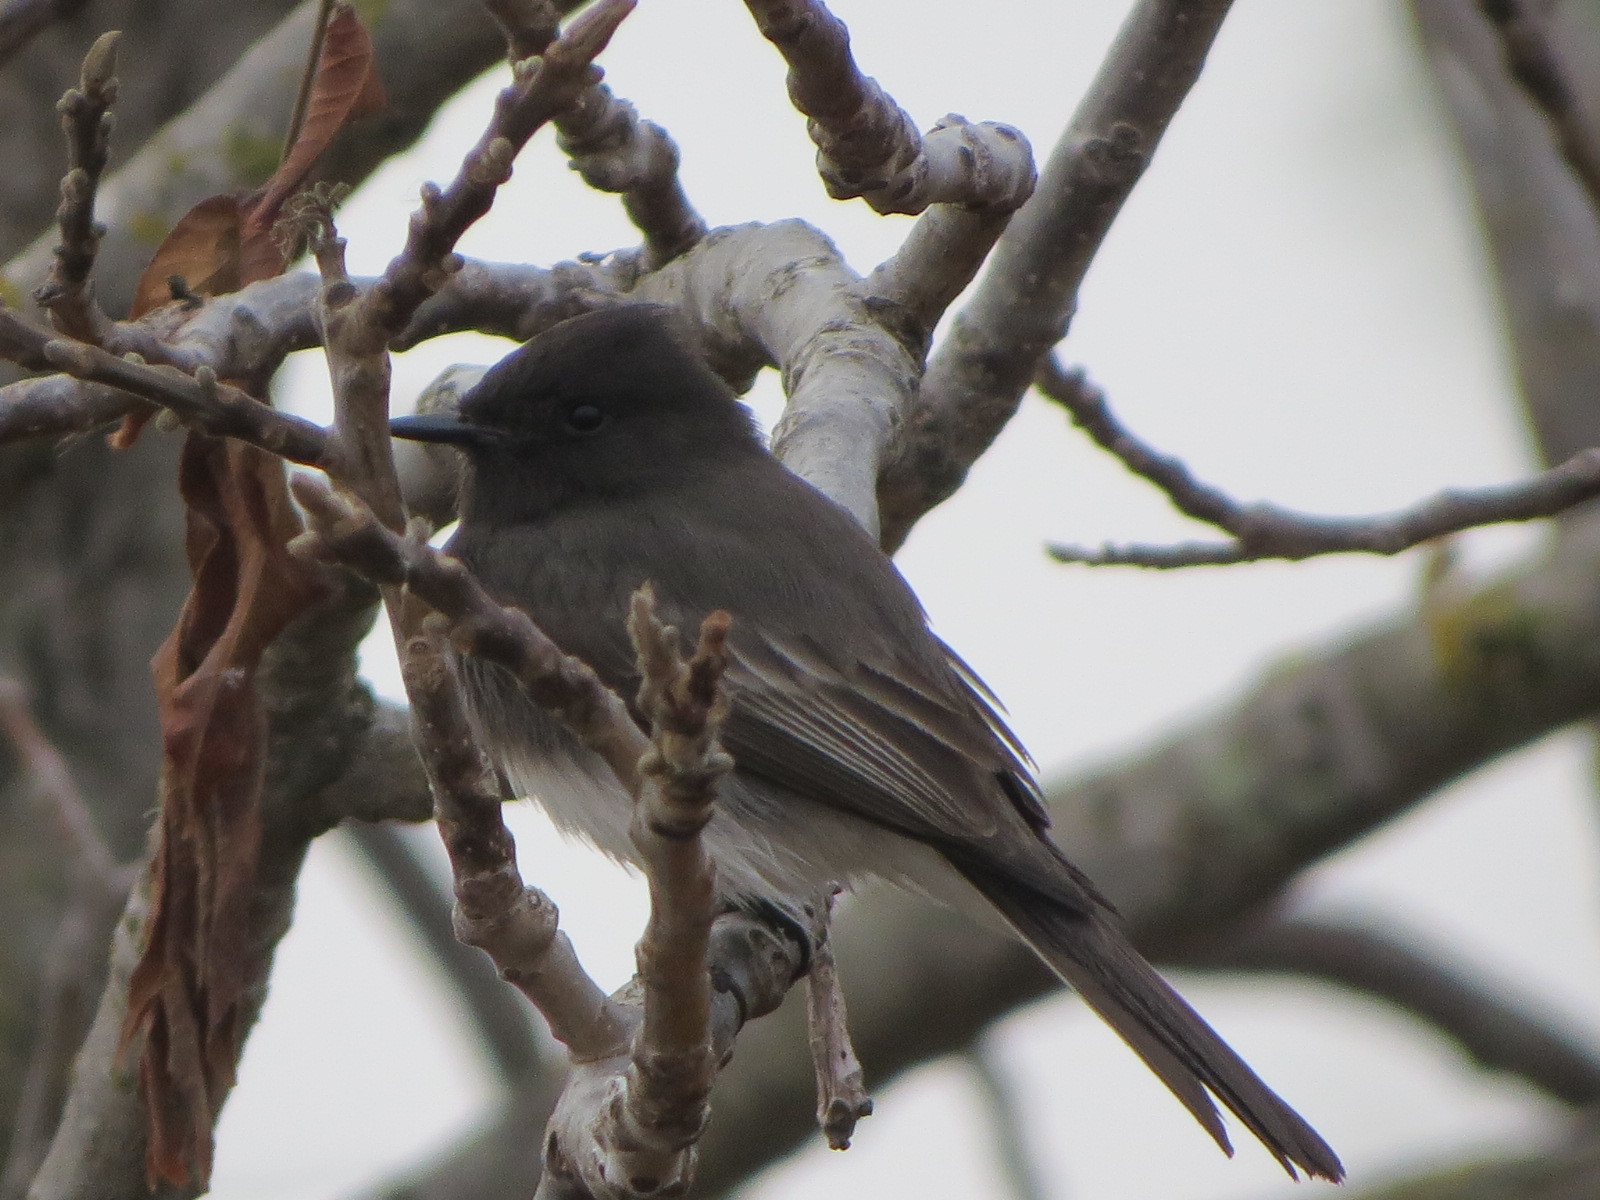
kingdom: Animalia
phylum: Chordata
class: Aves
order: Passeriformes
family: Tyrannidae
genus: Sayornis
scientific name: Sayornis nigricans
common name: Black phoebe
